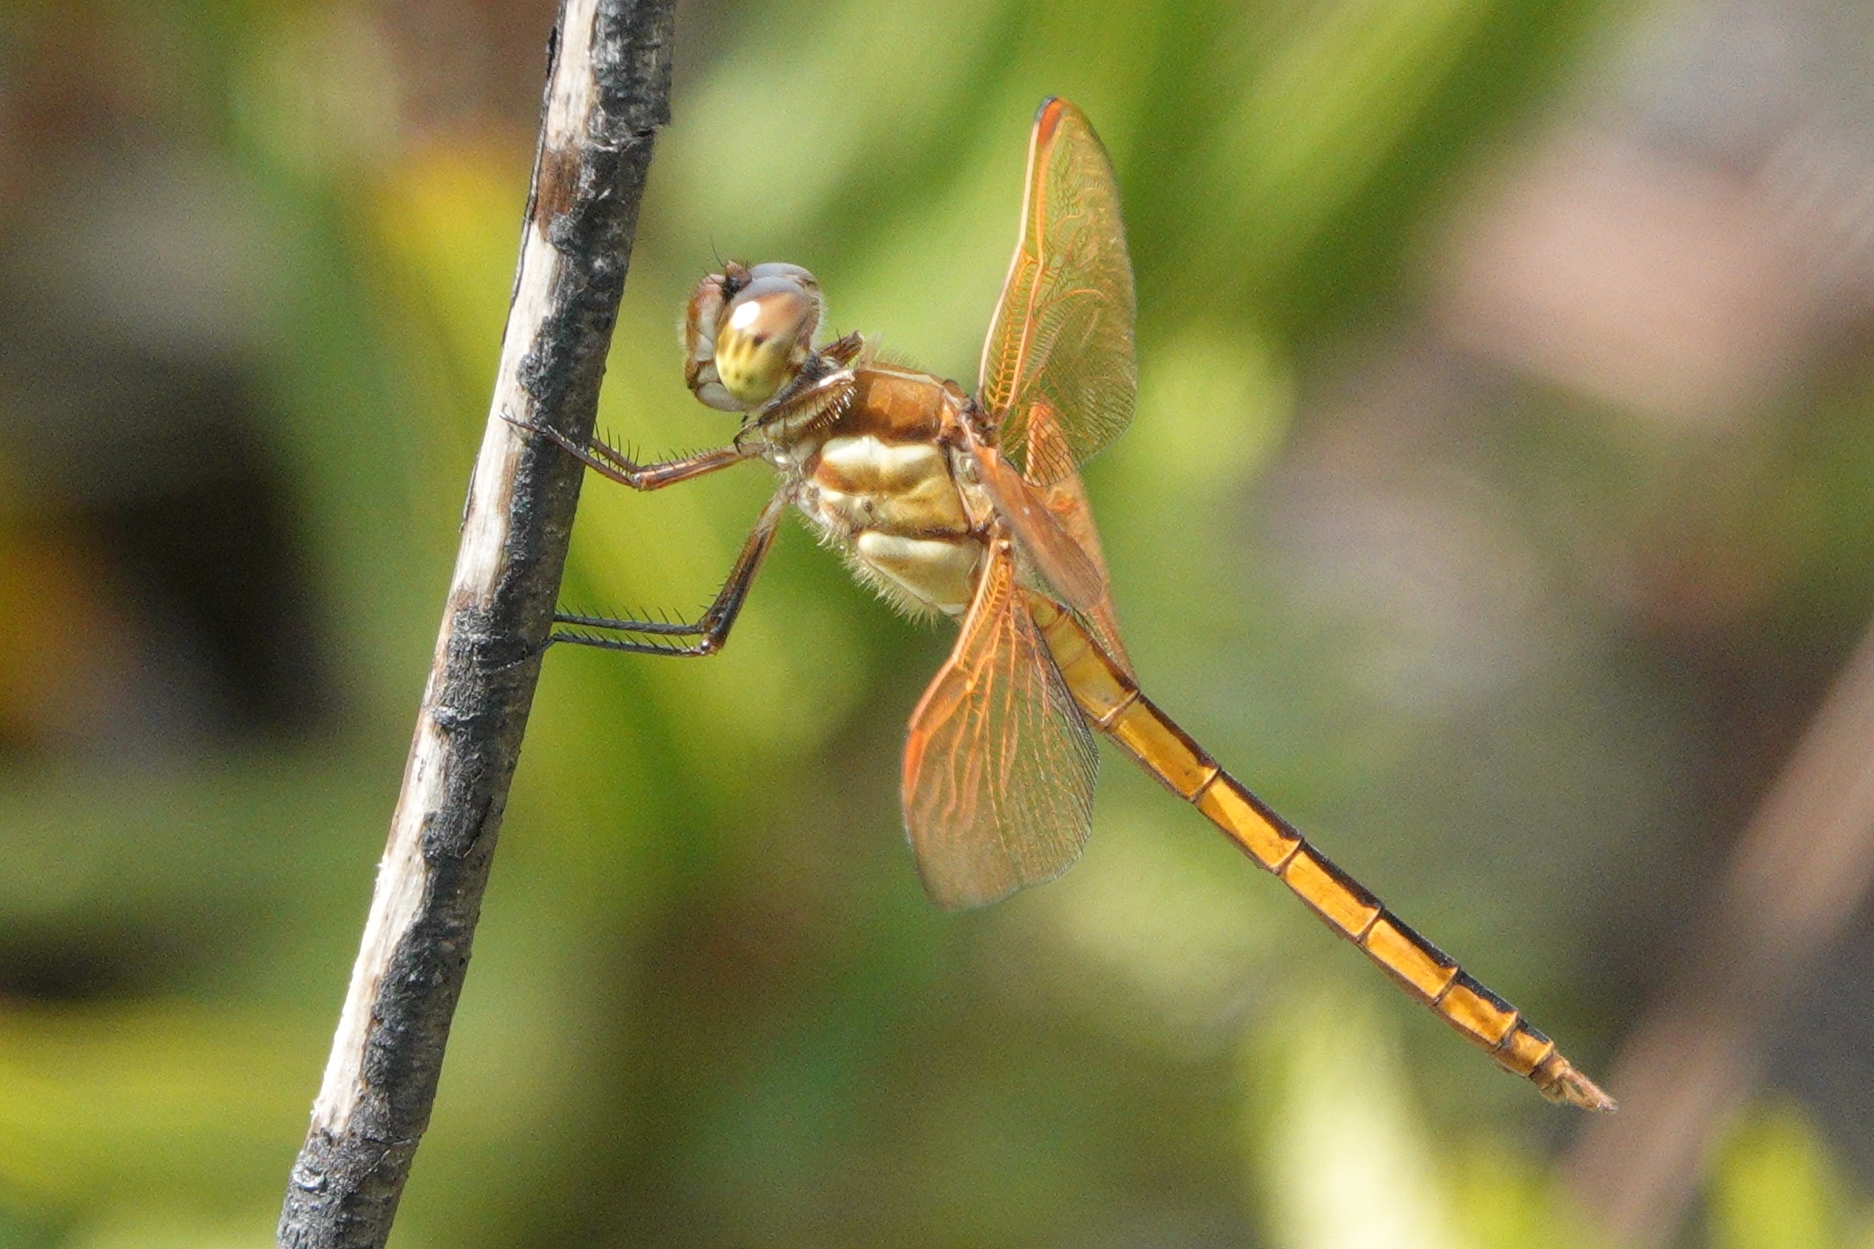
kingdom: Animalia
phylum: Arthropoda
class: Insecta
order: Odonata
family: Libellulidae
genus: Libellula
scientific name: Libellula auripennis
